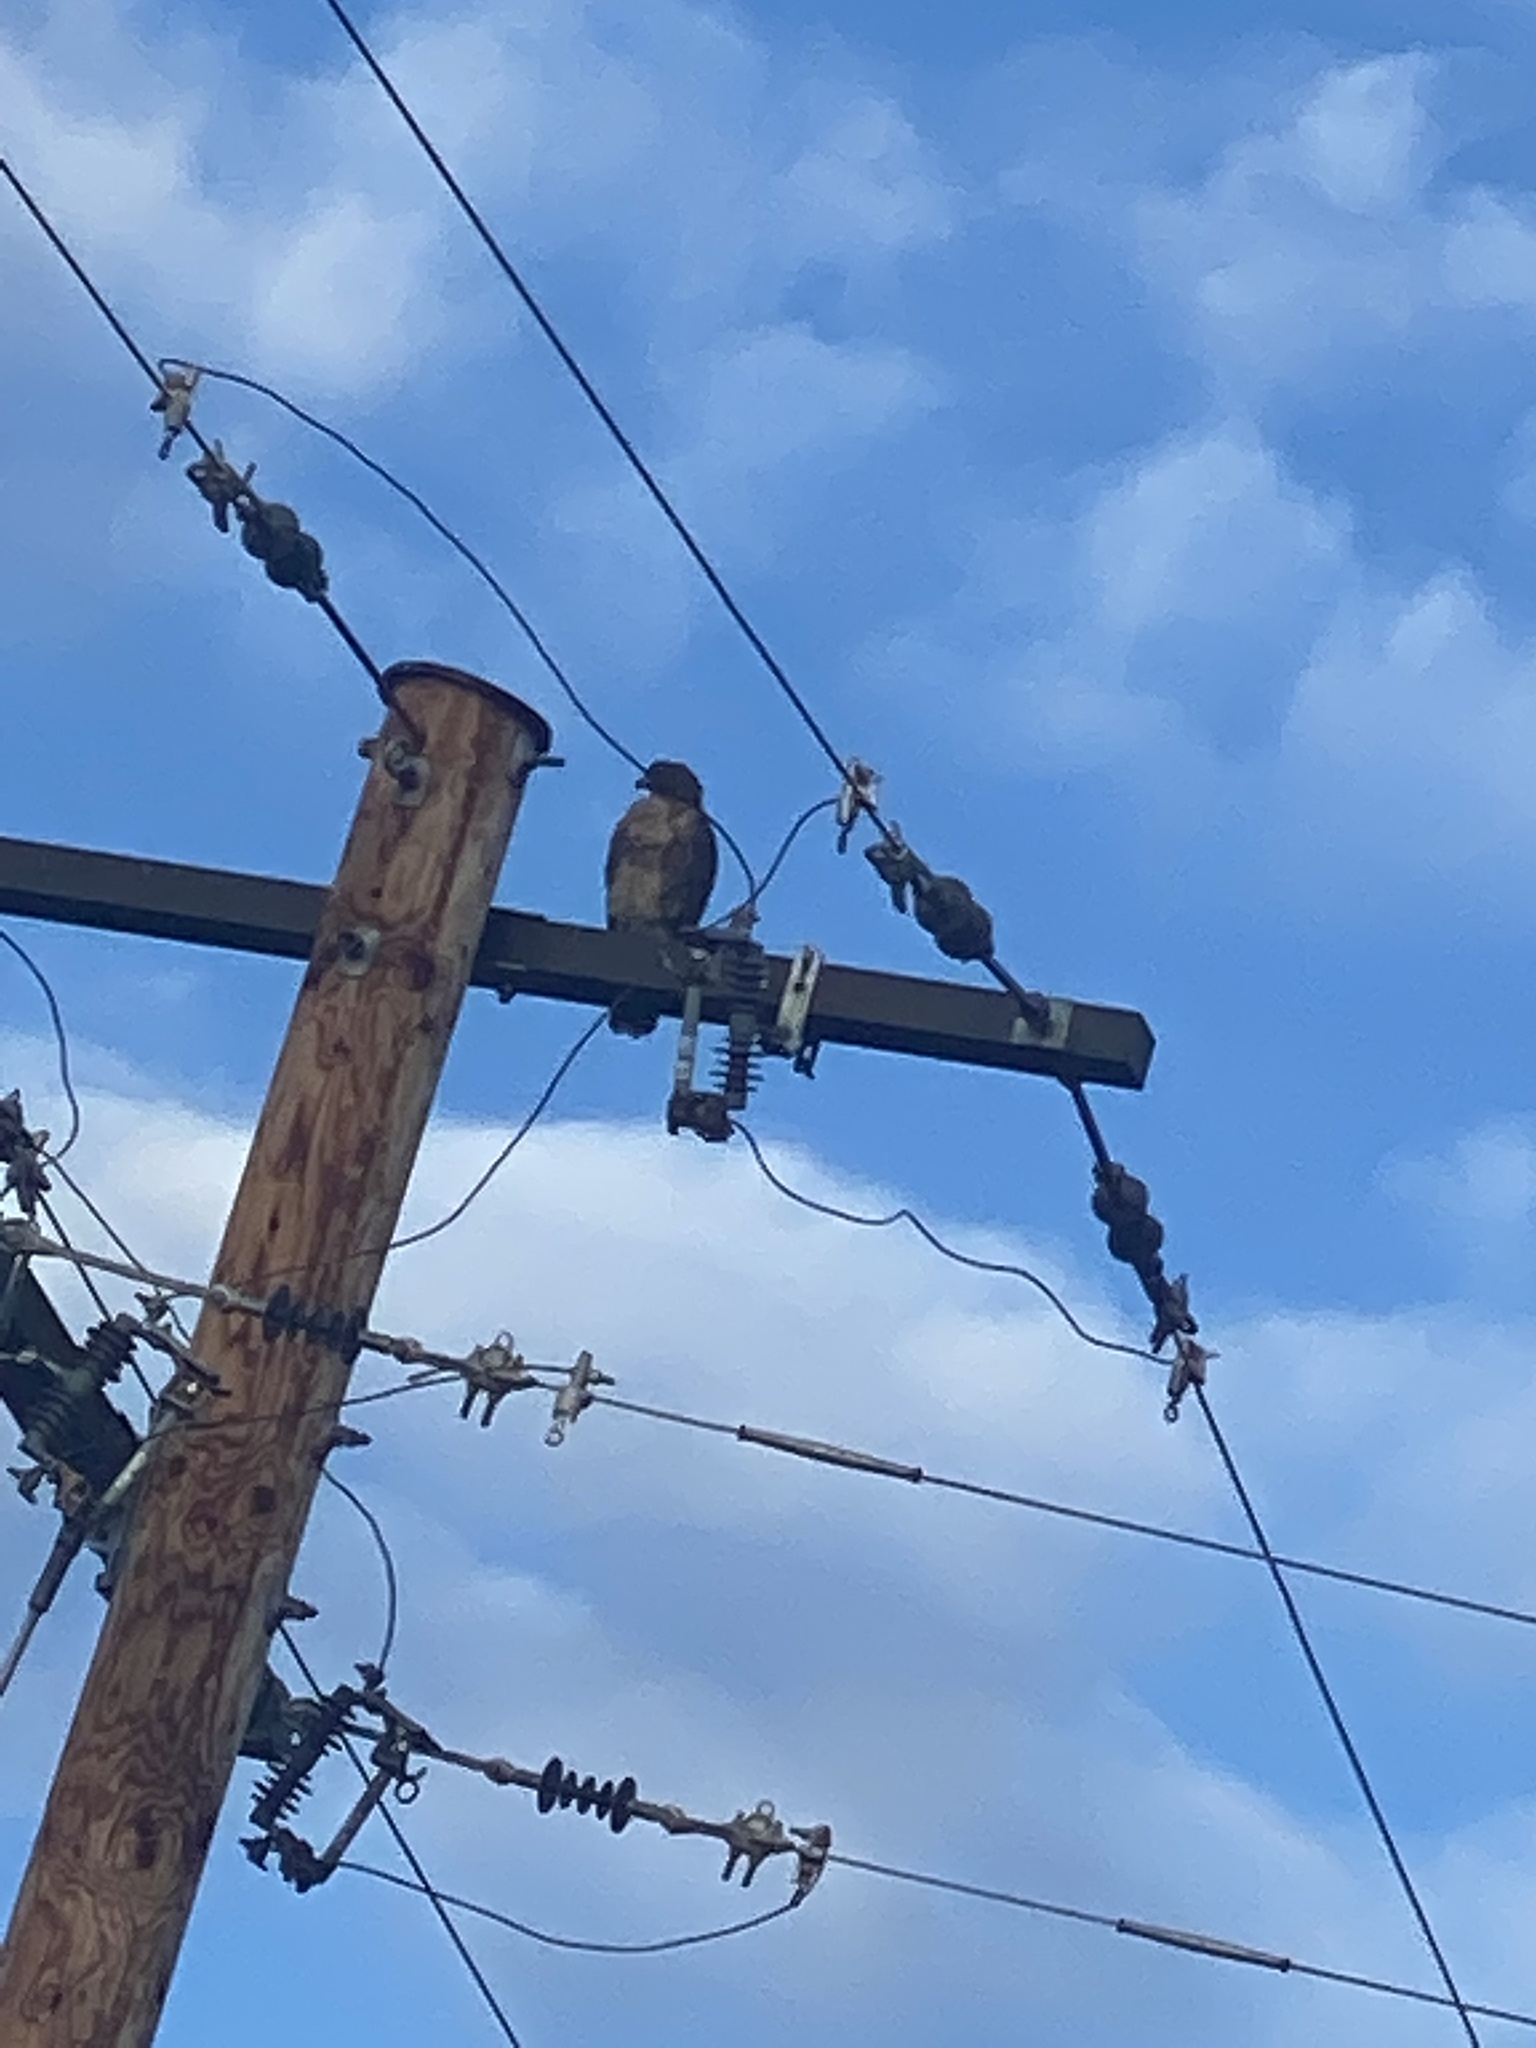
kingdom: Animalia
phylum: Chordata
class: Aves
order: Accipitriformes
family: Accipitridae
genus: Buteo
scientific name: Buteo jamaicensis
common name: Red-tailed hawk
